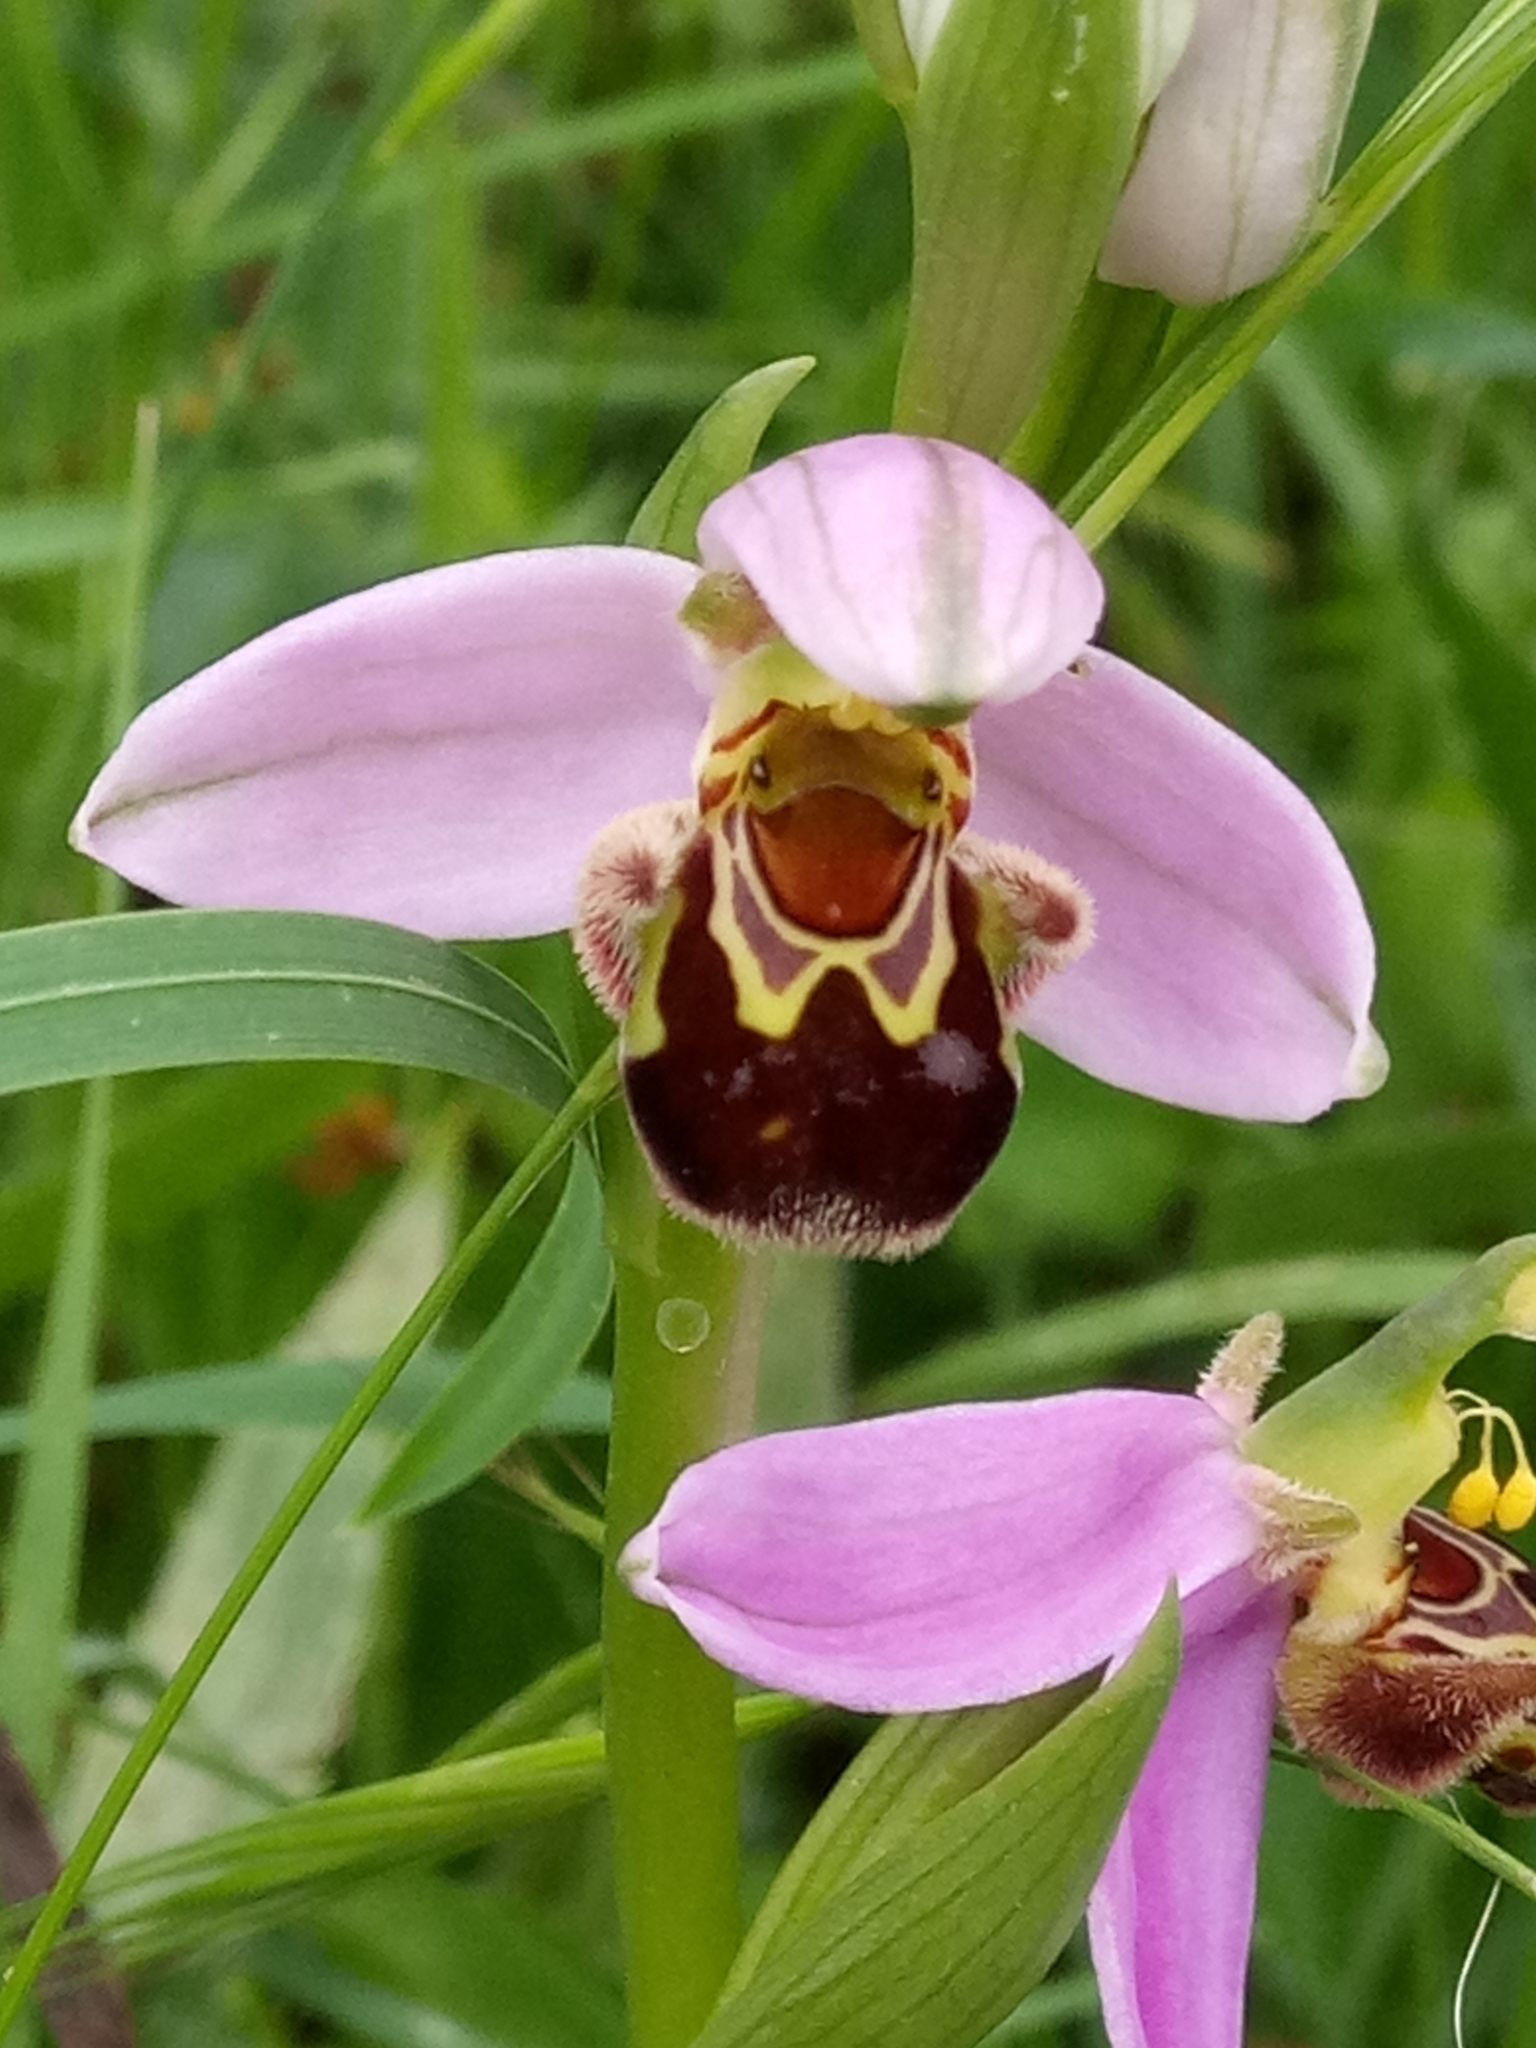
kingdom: Plantae
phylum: Tracheophyta
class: Liliopsida
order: Asparagales
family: Orchidaceae
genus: Ophrys
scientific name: Ophrys apifera
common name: Bee orchid
